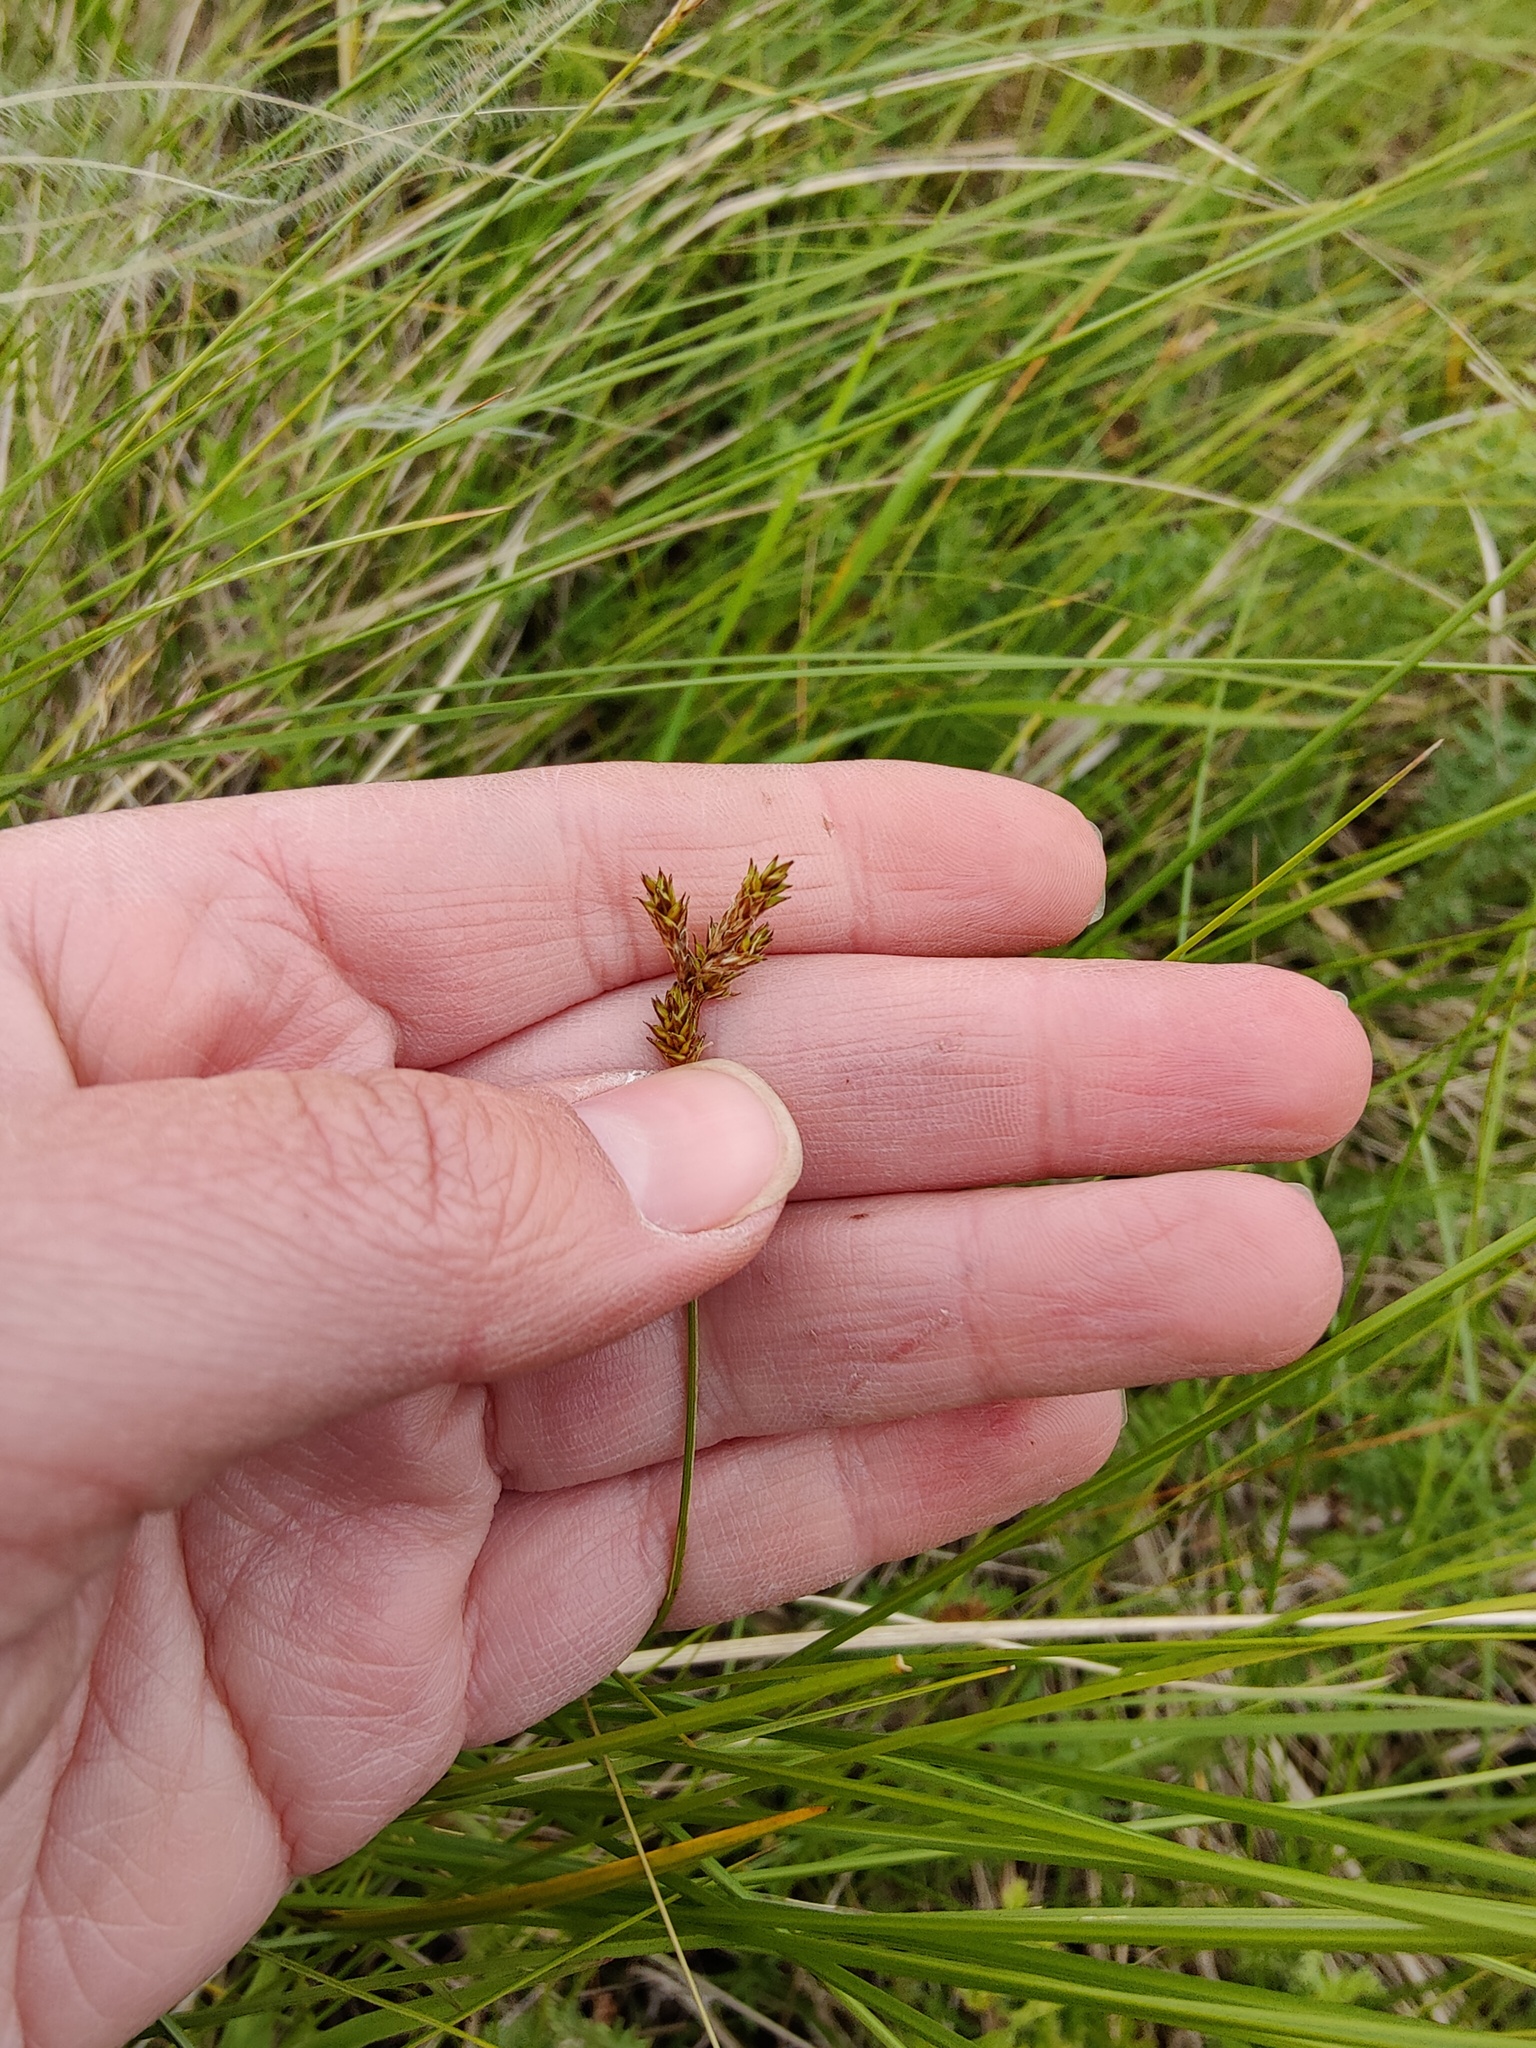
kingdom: Plantae
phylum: Tracheophyta
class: Liliopsida
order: Poales
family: Cyperaceae
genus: Carex
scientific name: Carex praecox
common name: Early sedge
